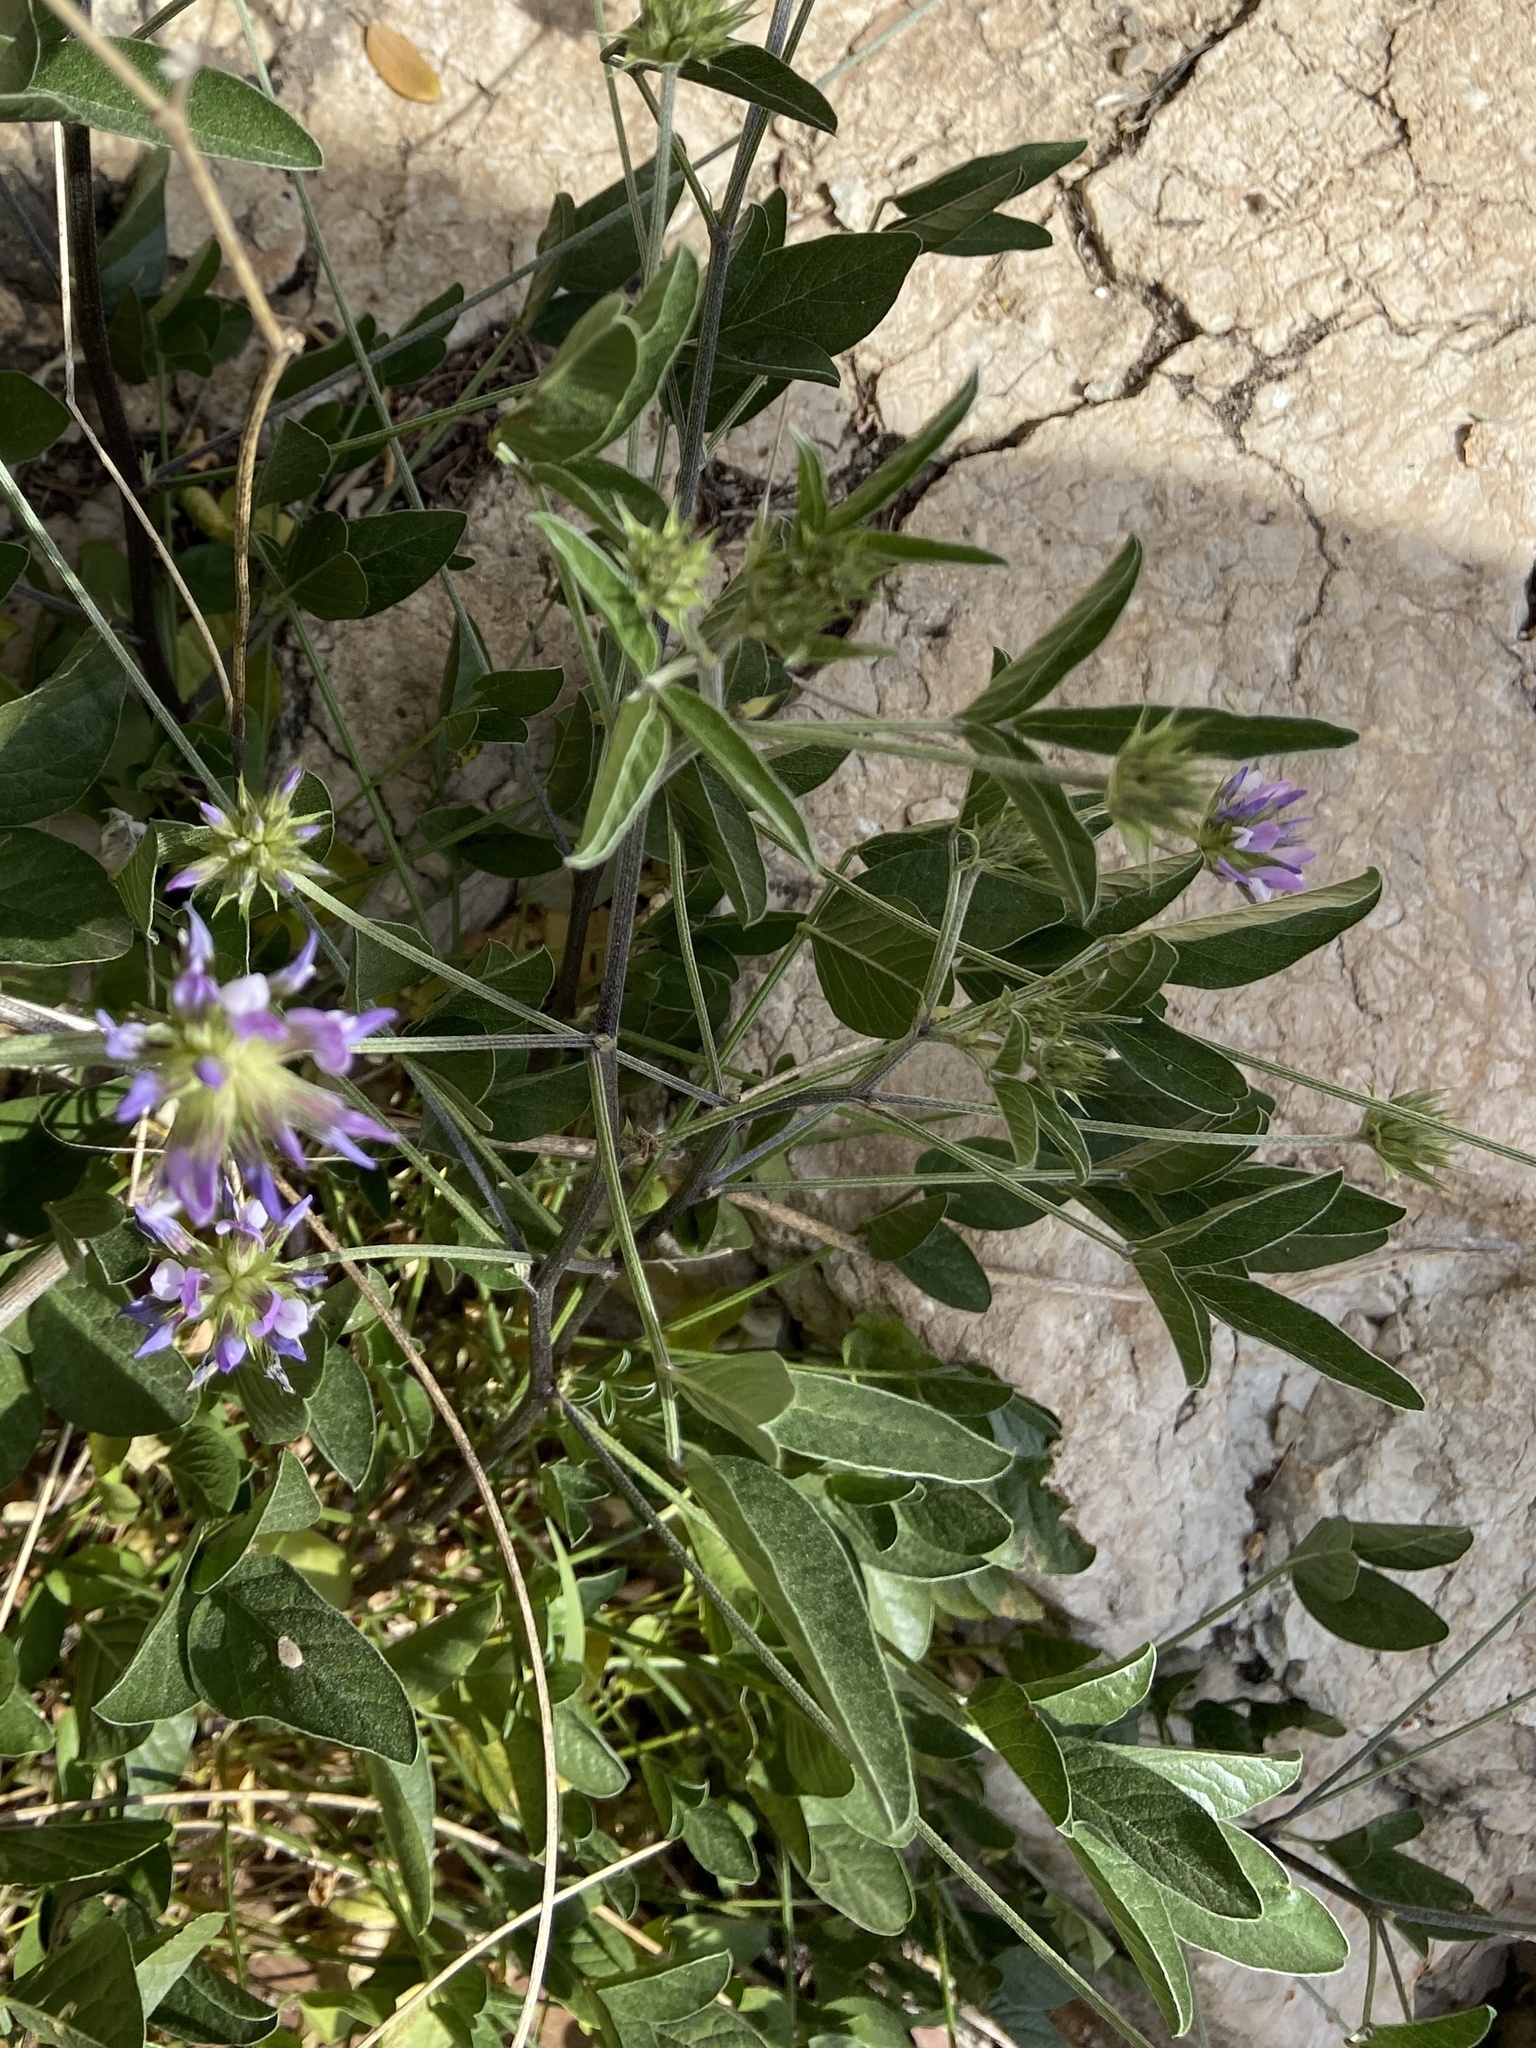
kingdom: Plantae
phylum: Tracheophyta
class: Magnoliopsida
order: Fabales
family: Fabaceae
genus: Bituminaria
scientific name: Bituminaria bituminosa
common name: Arabian pea
